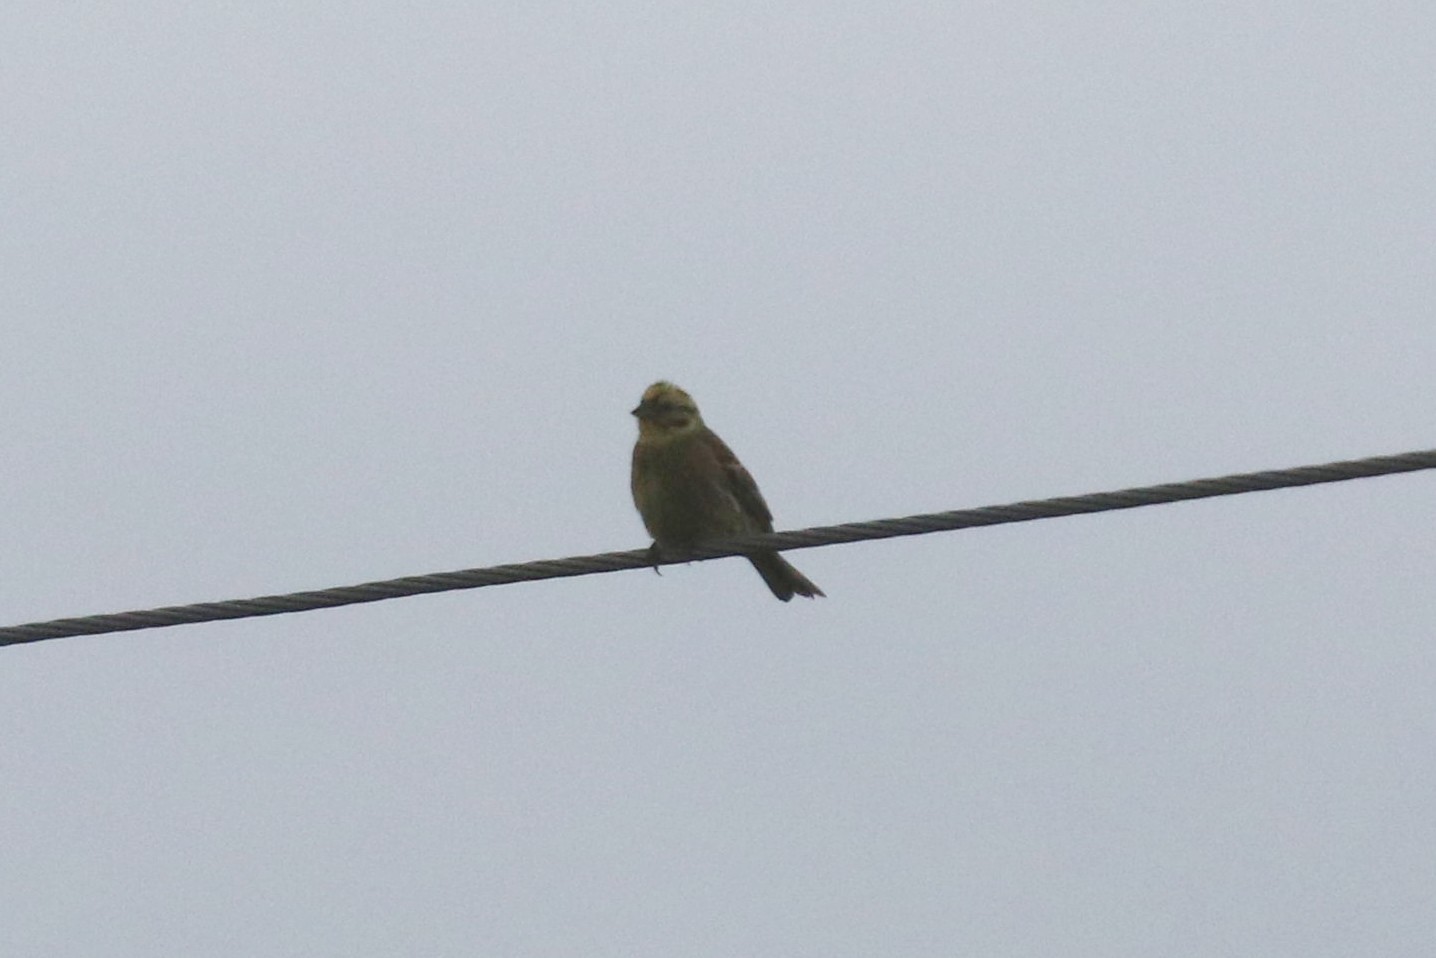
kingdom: Animalia
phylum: Chordata
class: Aves
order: Passeriformes
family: Emberizidae
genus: Emberiza
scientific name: Emberiza citrinella
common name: Yellowhammer
